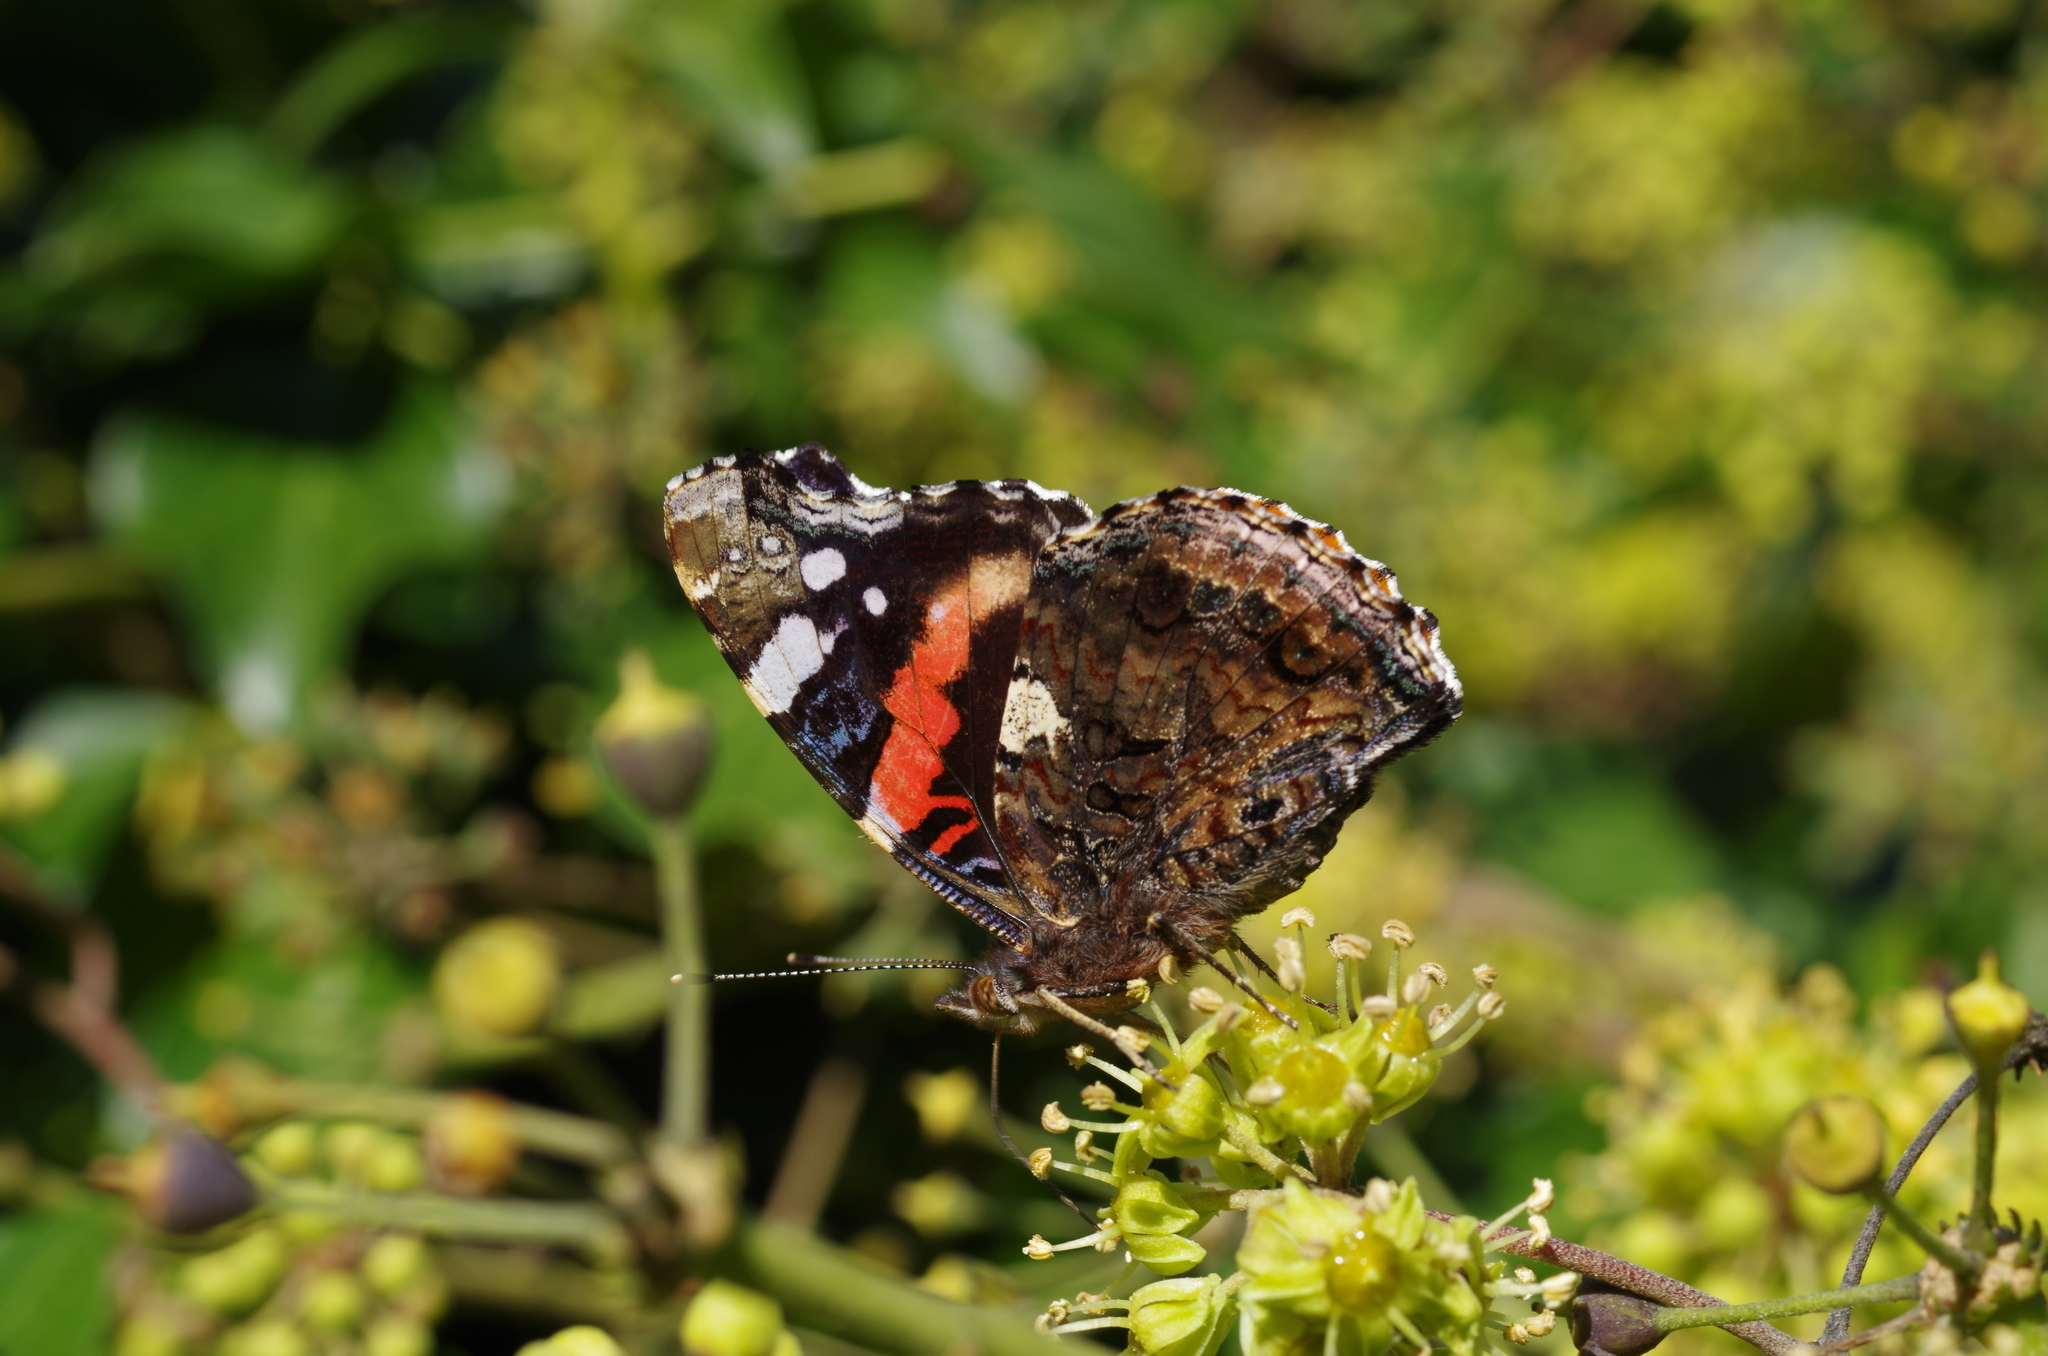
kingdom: Animalia
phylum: Arthropoda
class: Insecta
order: Lepidoptera
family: Nymphalidae
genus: Vanessa
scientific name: Vanessa atalanta
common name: Red admiral
